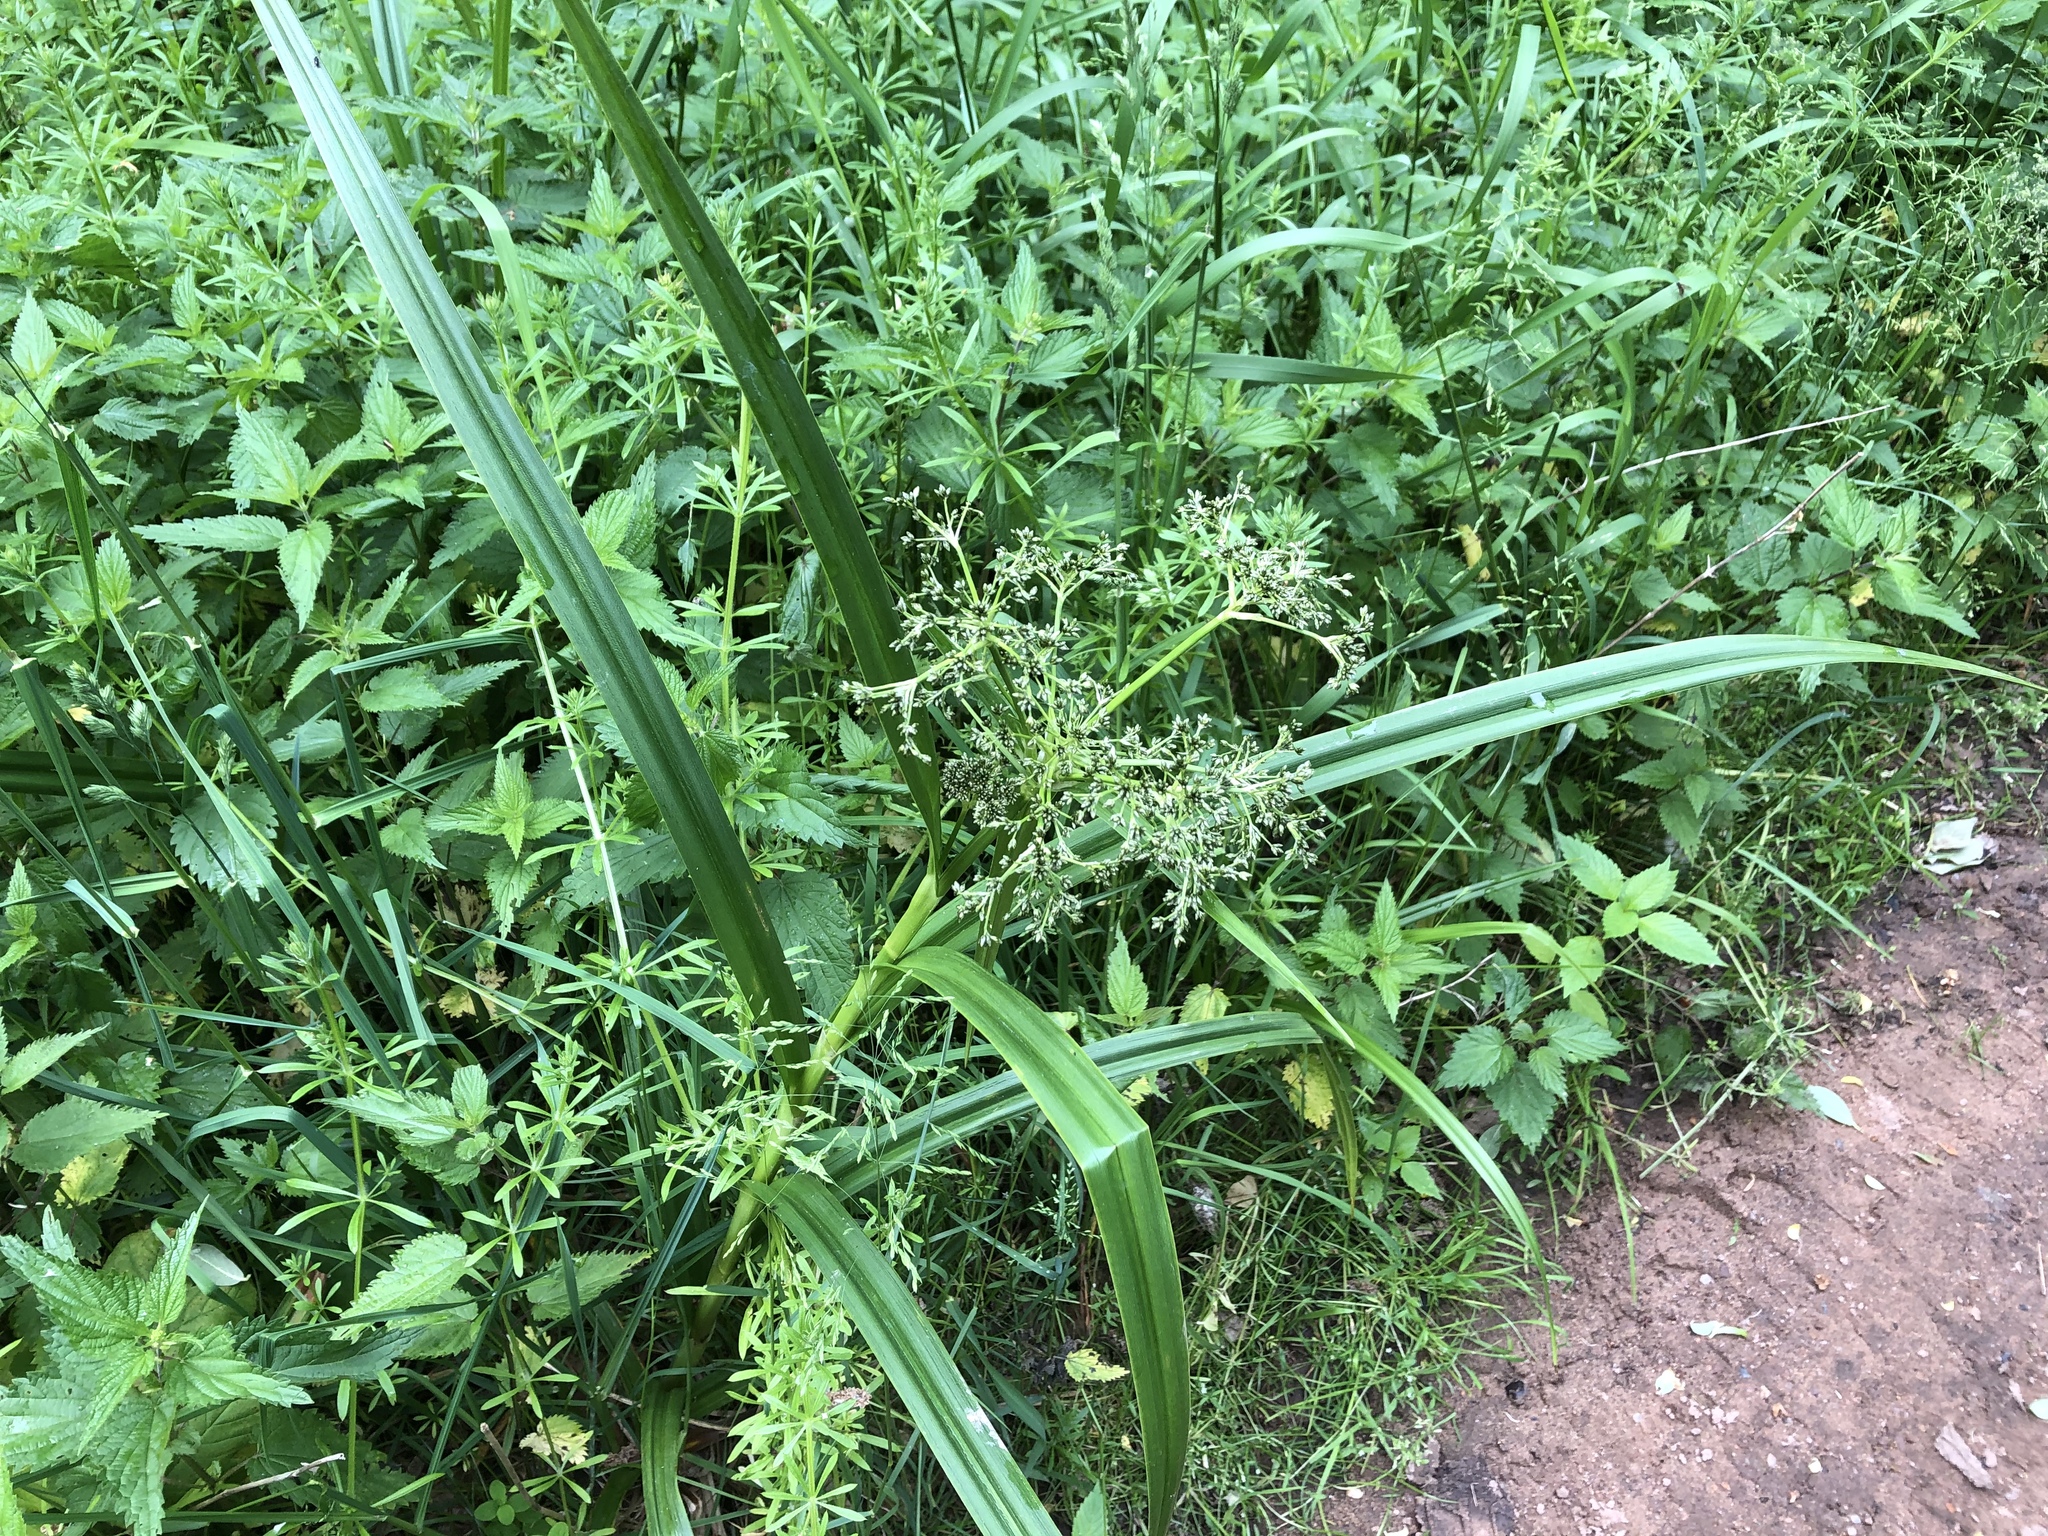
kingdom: Plantae
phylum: Tracheophyta
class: Liliopsida
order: Poales
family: Cyperaceae
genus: Scirpus
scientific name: Scirpus sylvaticus
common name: Wood club-rush
